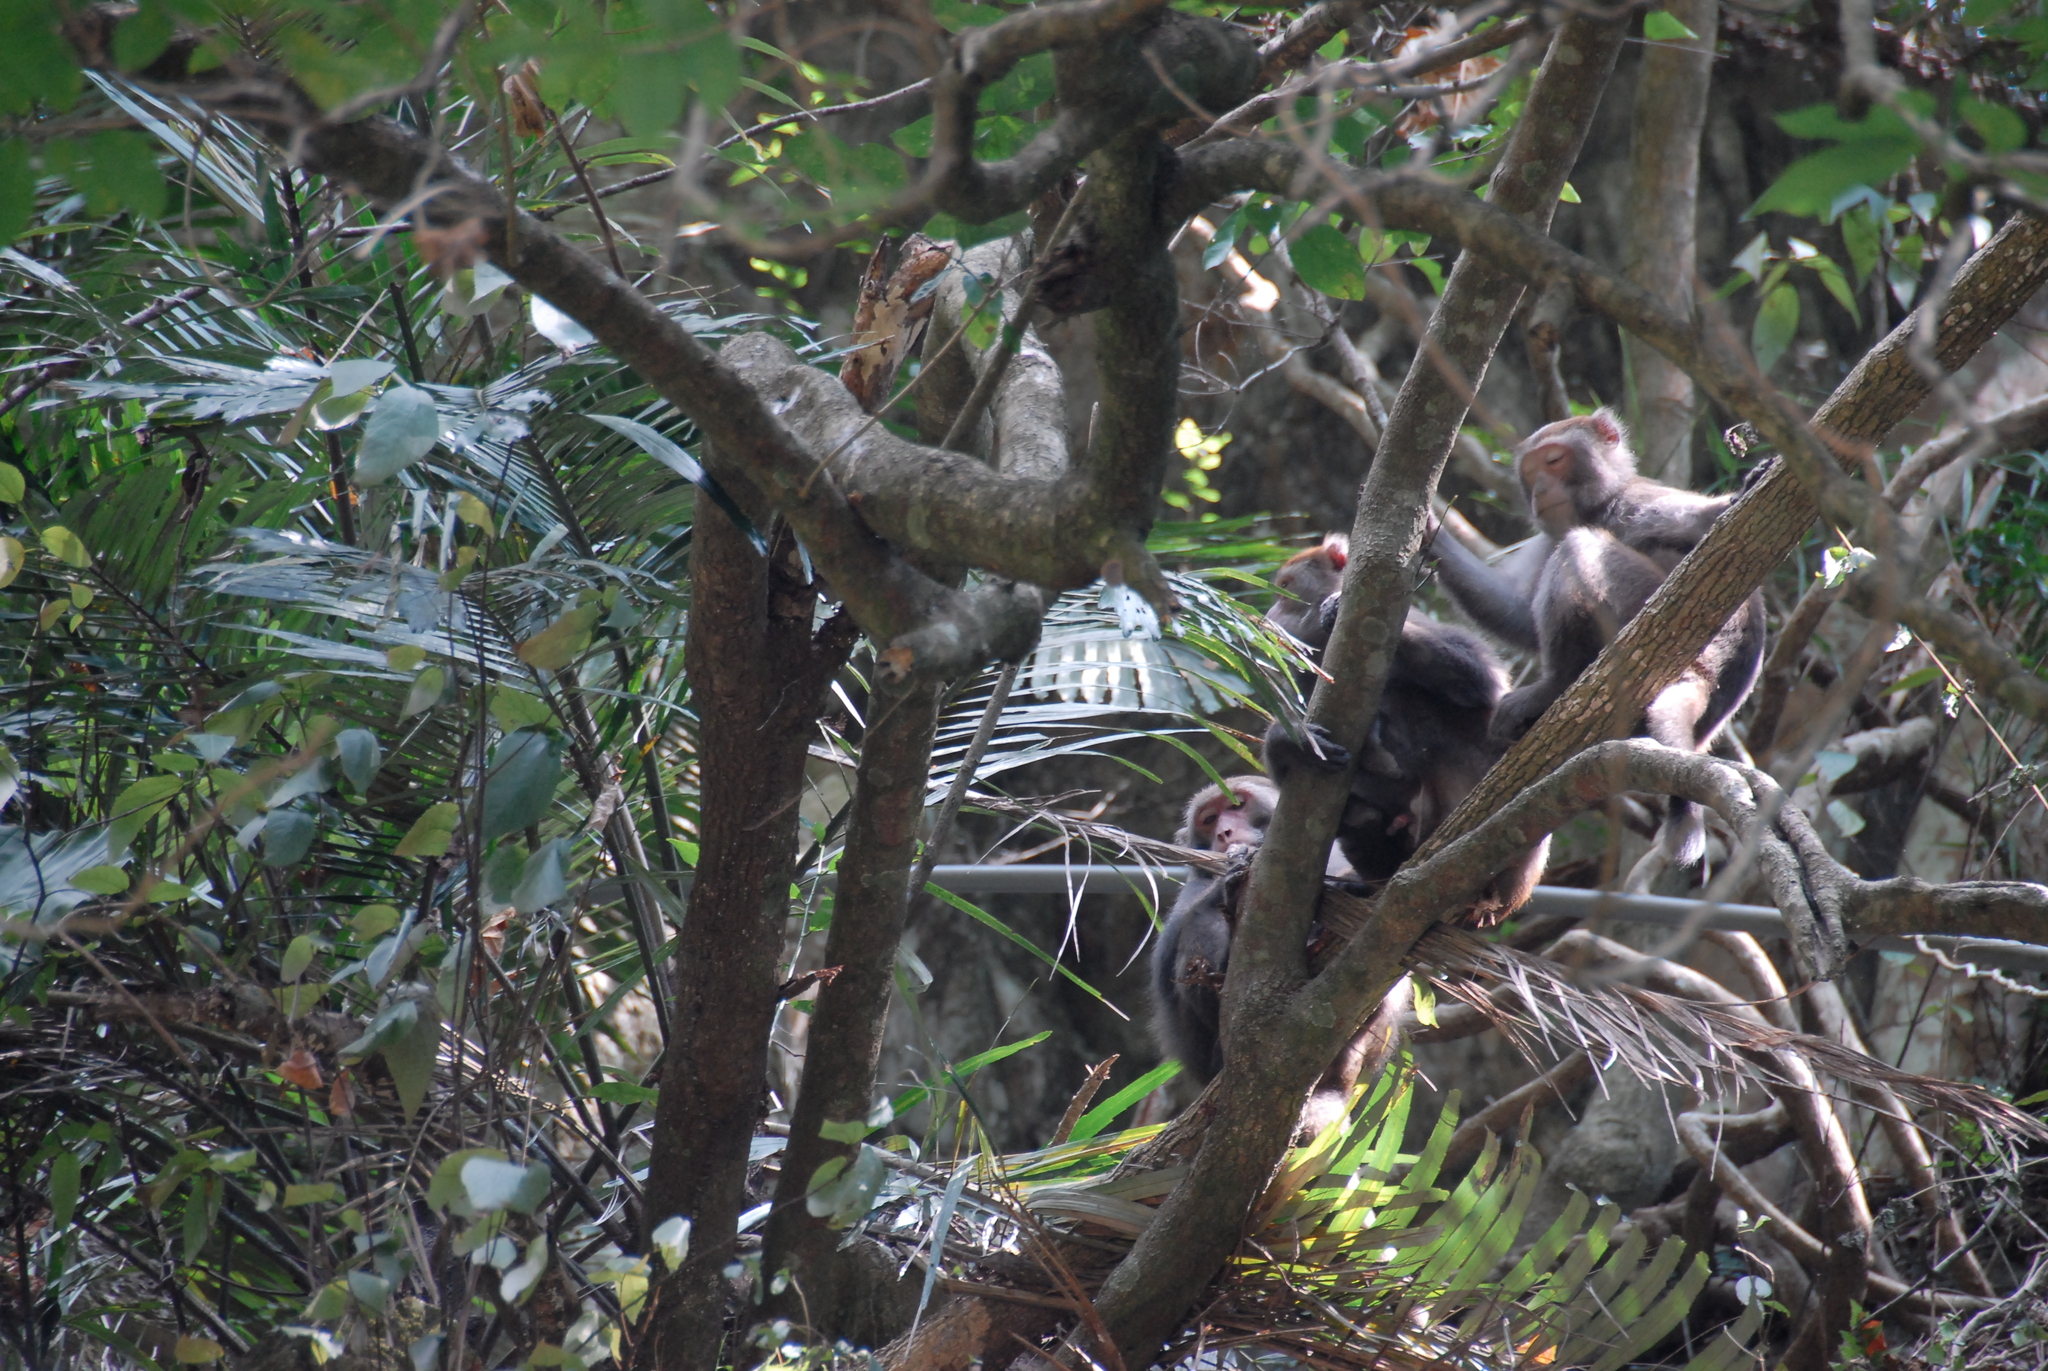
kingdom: Animalia
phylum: Chordata
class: Mammalia
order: Primates
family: Cercopithecidae
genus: Macaca
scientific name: Macaca cyclopis
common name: Formosan rock macaque
